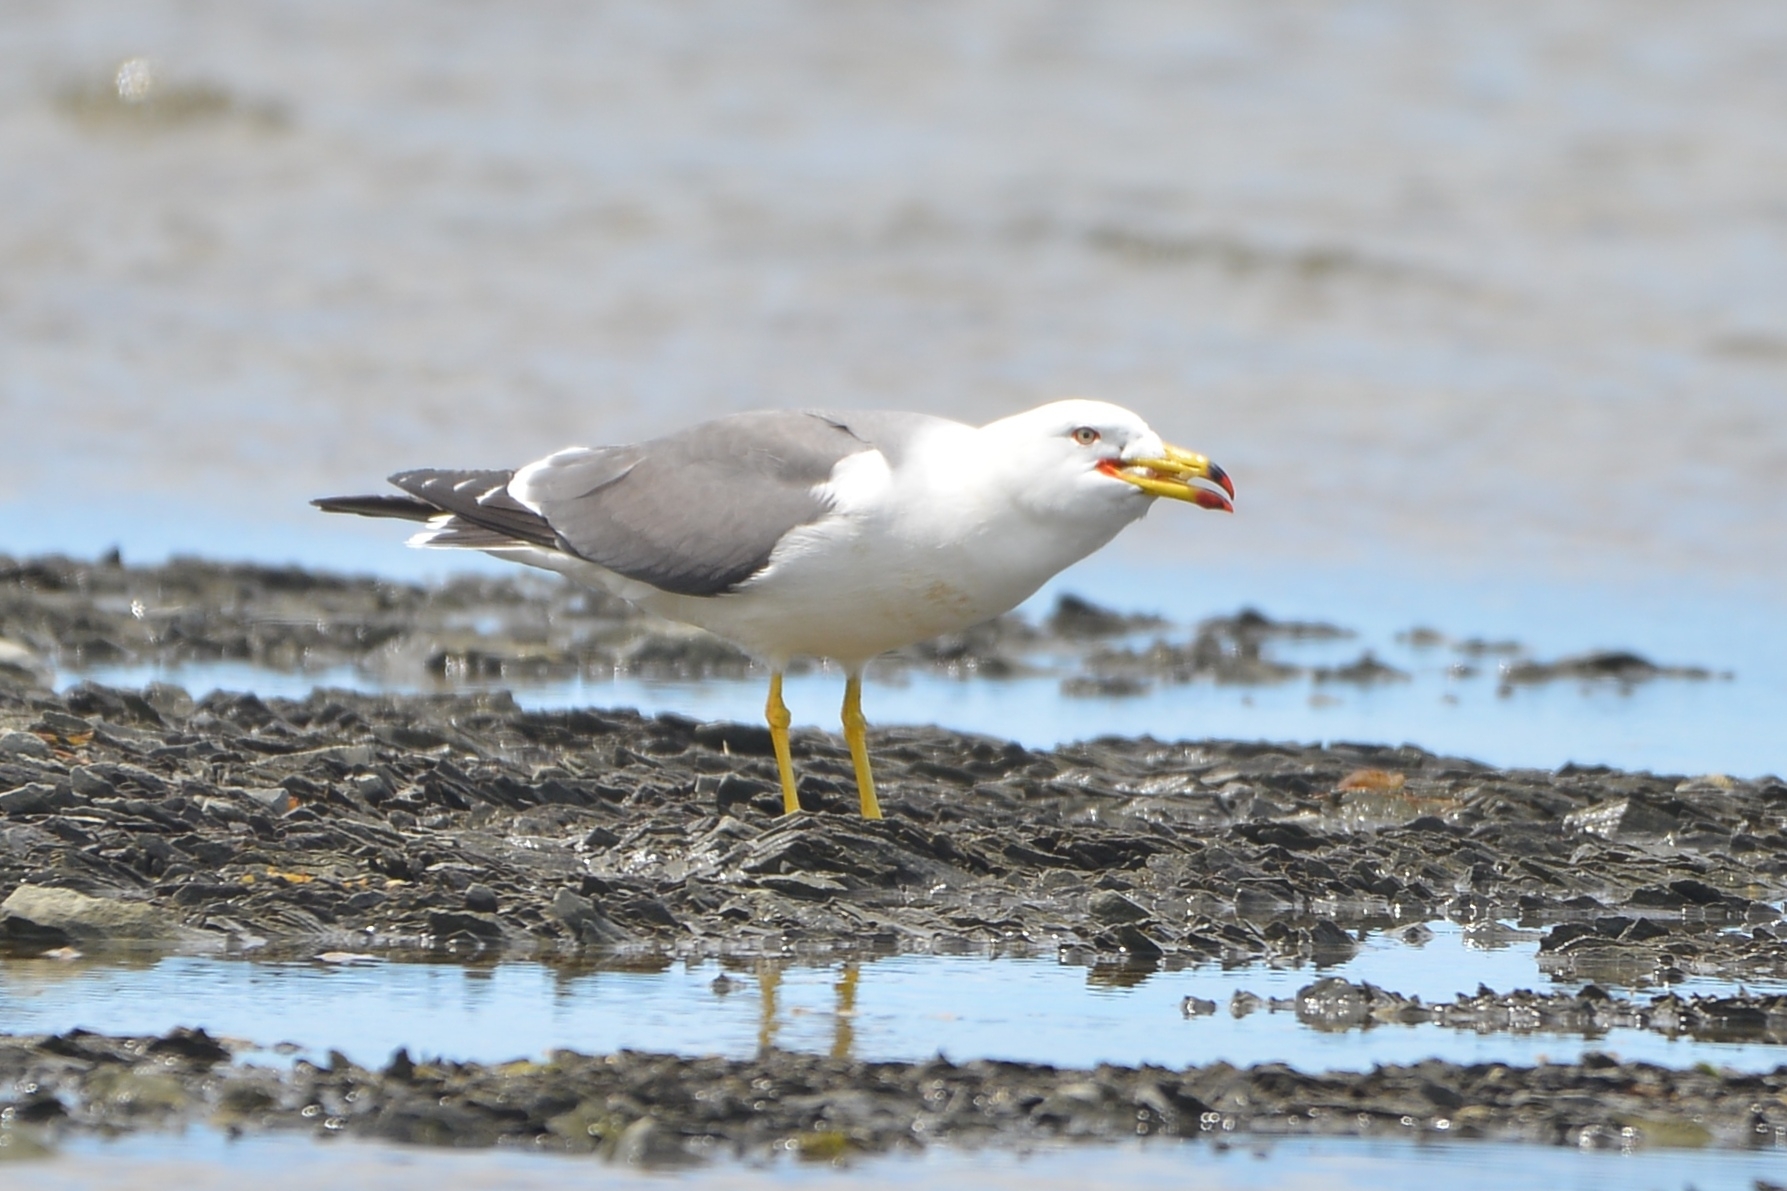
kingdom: Animalia
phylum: Chordata
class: Aves
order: Charadriiformes
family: Laridae
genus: Larus
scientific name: Larus crassirostris
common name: Black-tailed gull
